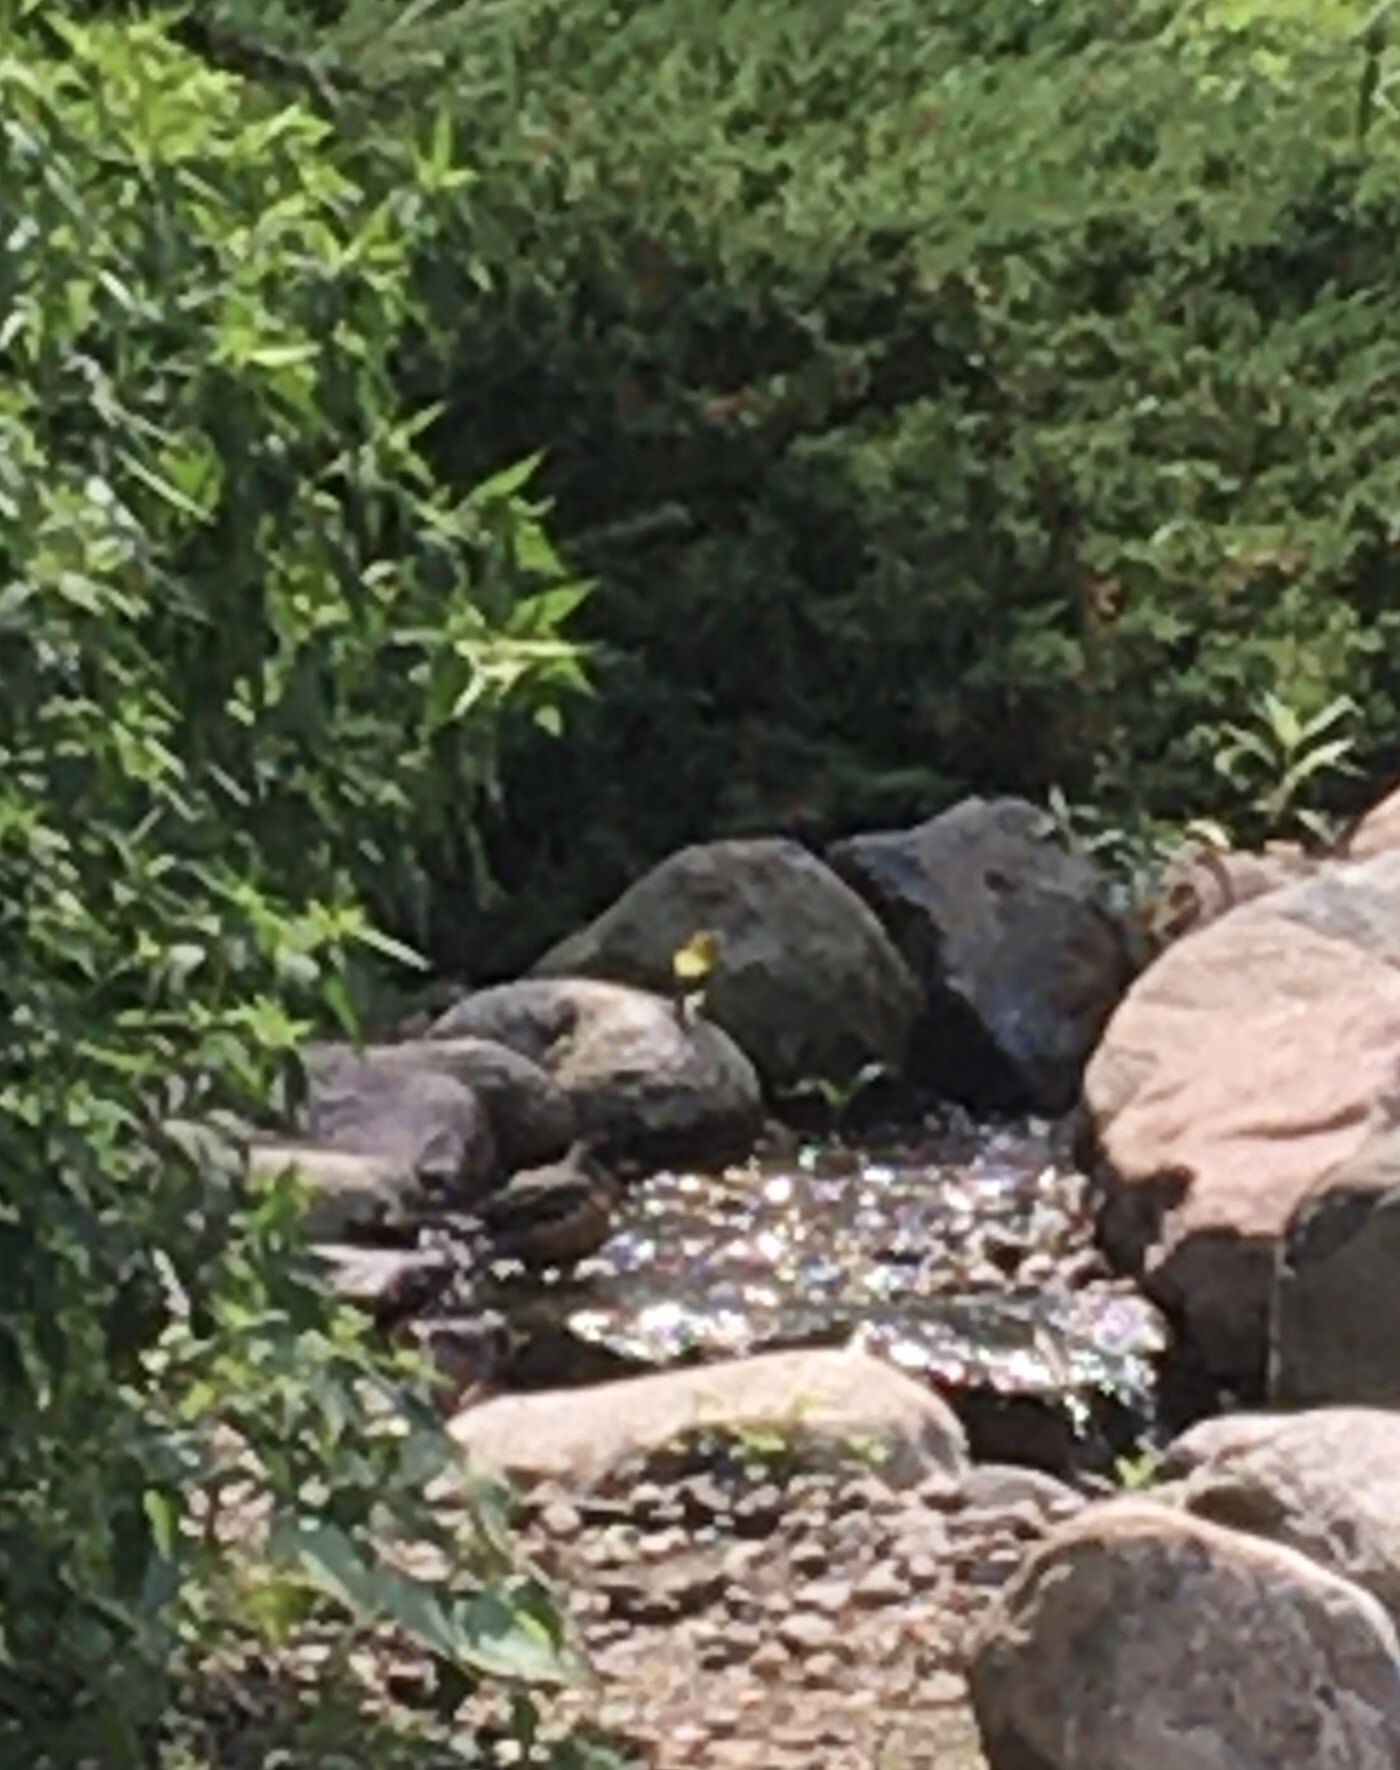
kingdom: Animalia
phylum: Chordata
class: Aves
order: Passeriformes
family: Fringillidae
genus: Spinus
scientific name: Spinus tristis
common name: American goldfinch
